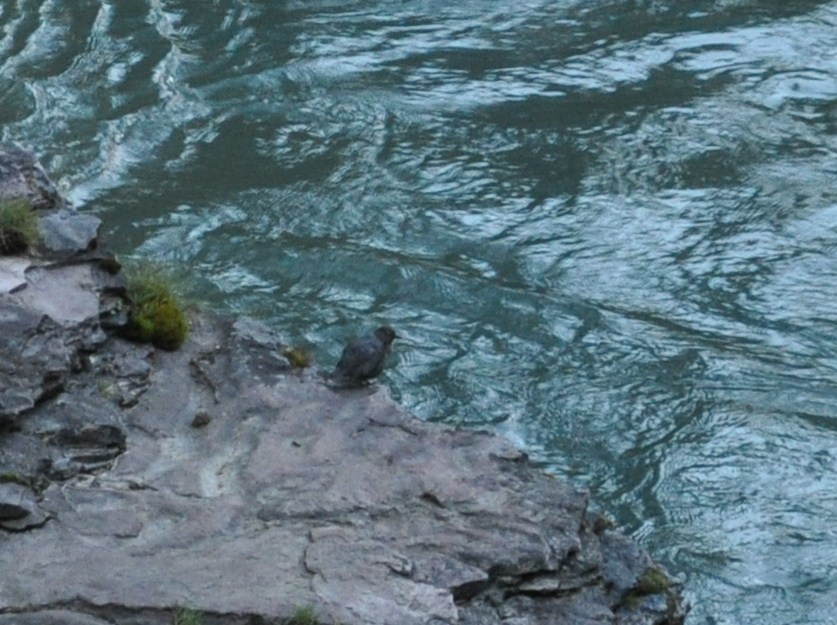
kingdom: Animalia
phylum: Chordata
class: Aves
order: Passeriformes
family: Cinclidae
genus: Cinclus
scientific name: Cinclus mexicanus
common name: American dipper
